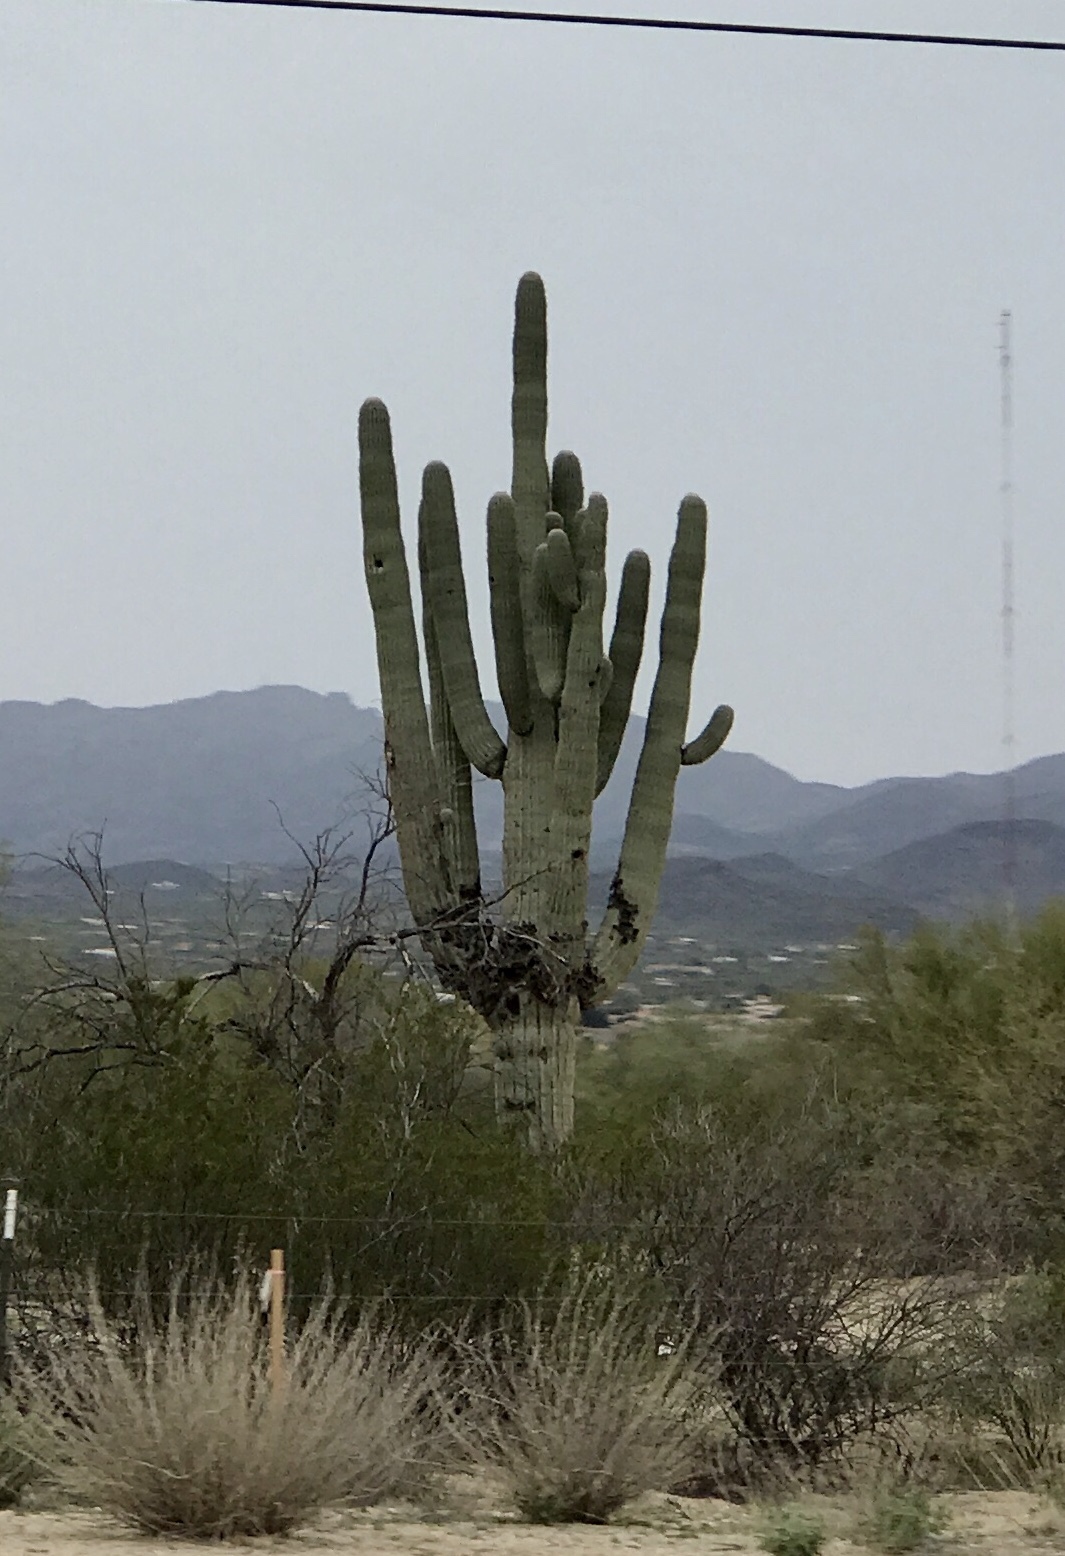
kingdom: Plantae
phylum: Tracheophyta
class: Magnoliopsida
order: Caryophyllales
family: Cactaceae
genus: Carnegiea
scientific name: Carnegiea gigantea
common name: Saguaro
